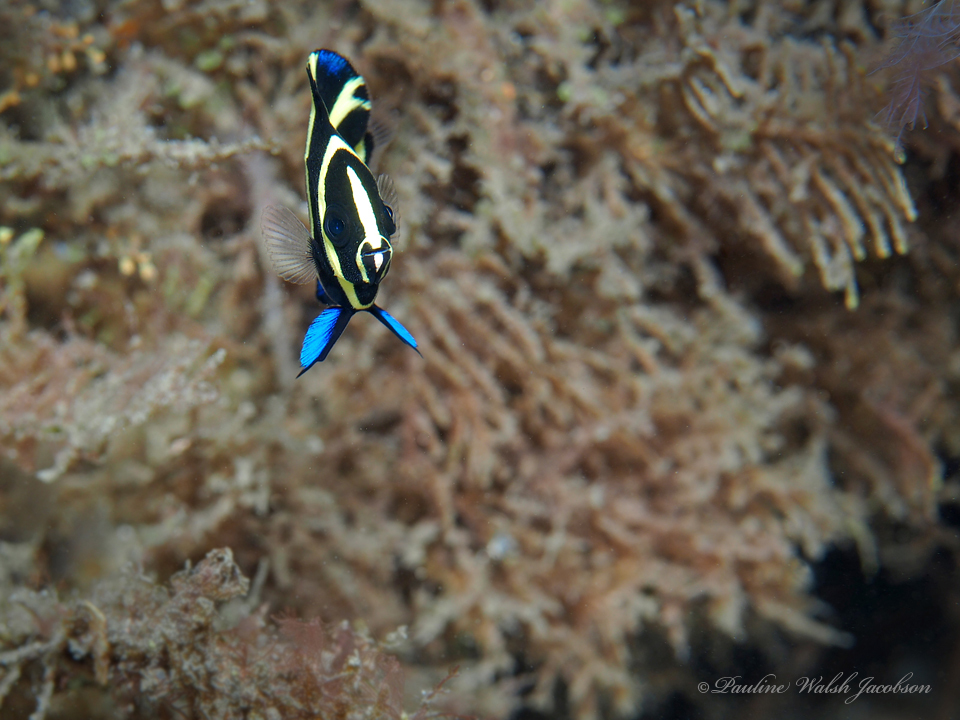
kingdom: Animalia
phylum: Chordata
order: Perciformes
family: Pomacanthidae
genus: Pomacanthus
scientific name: Pomacanthus arcuatus
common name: Gray angelfish
